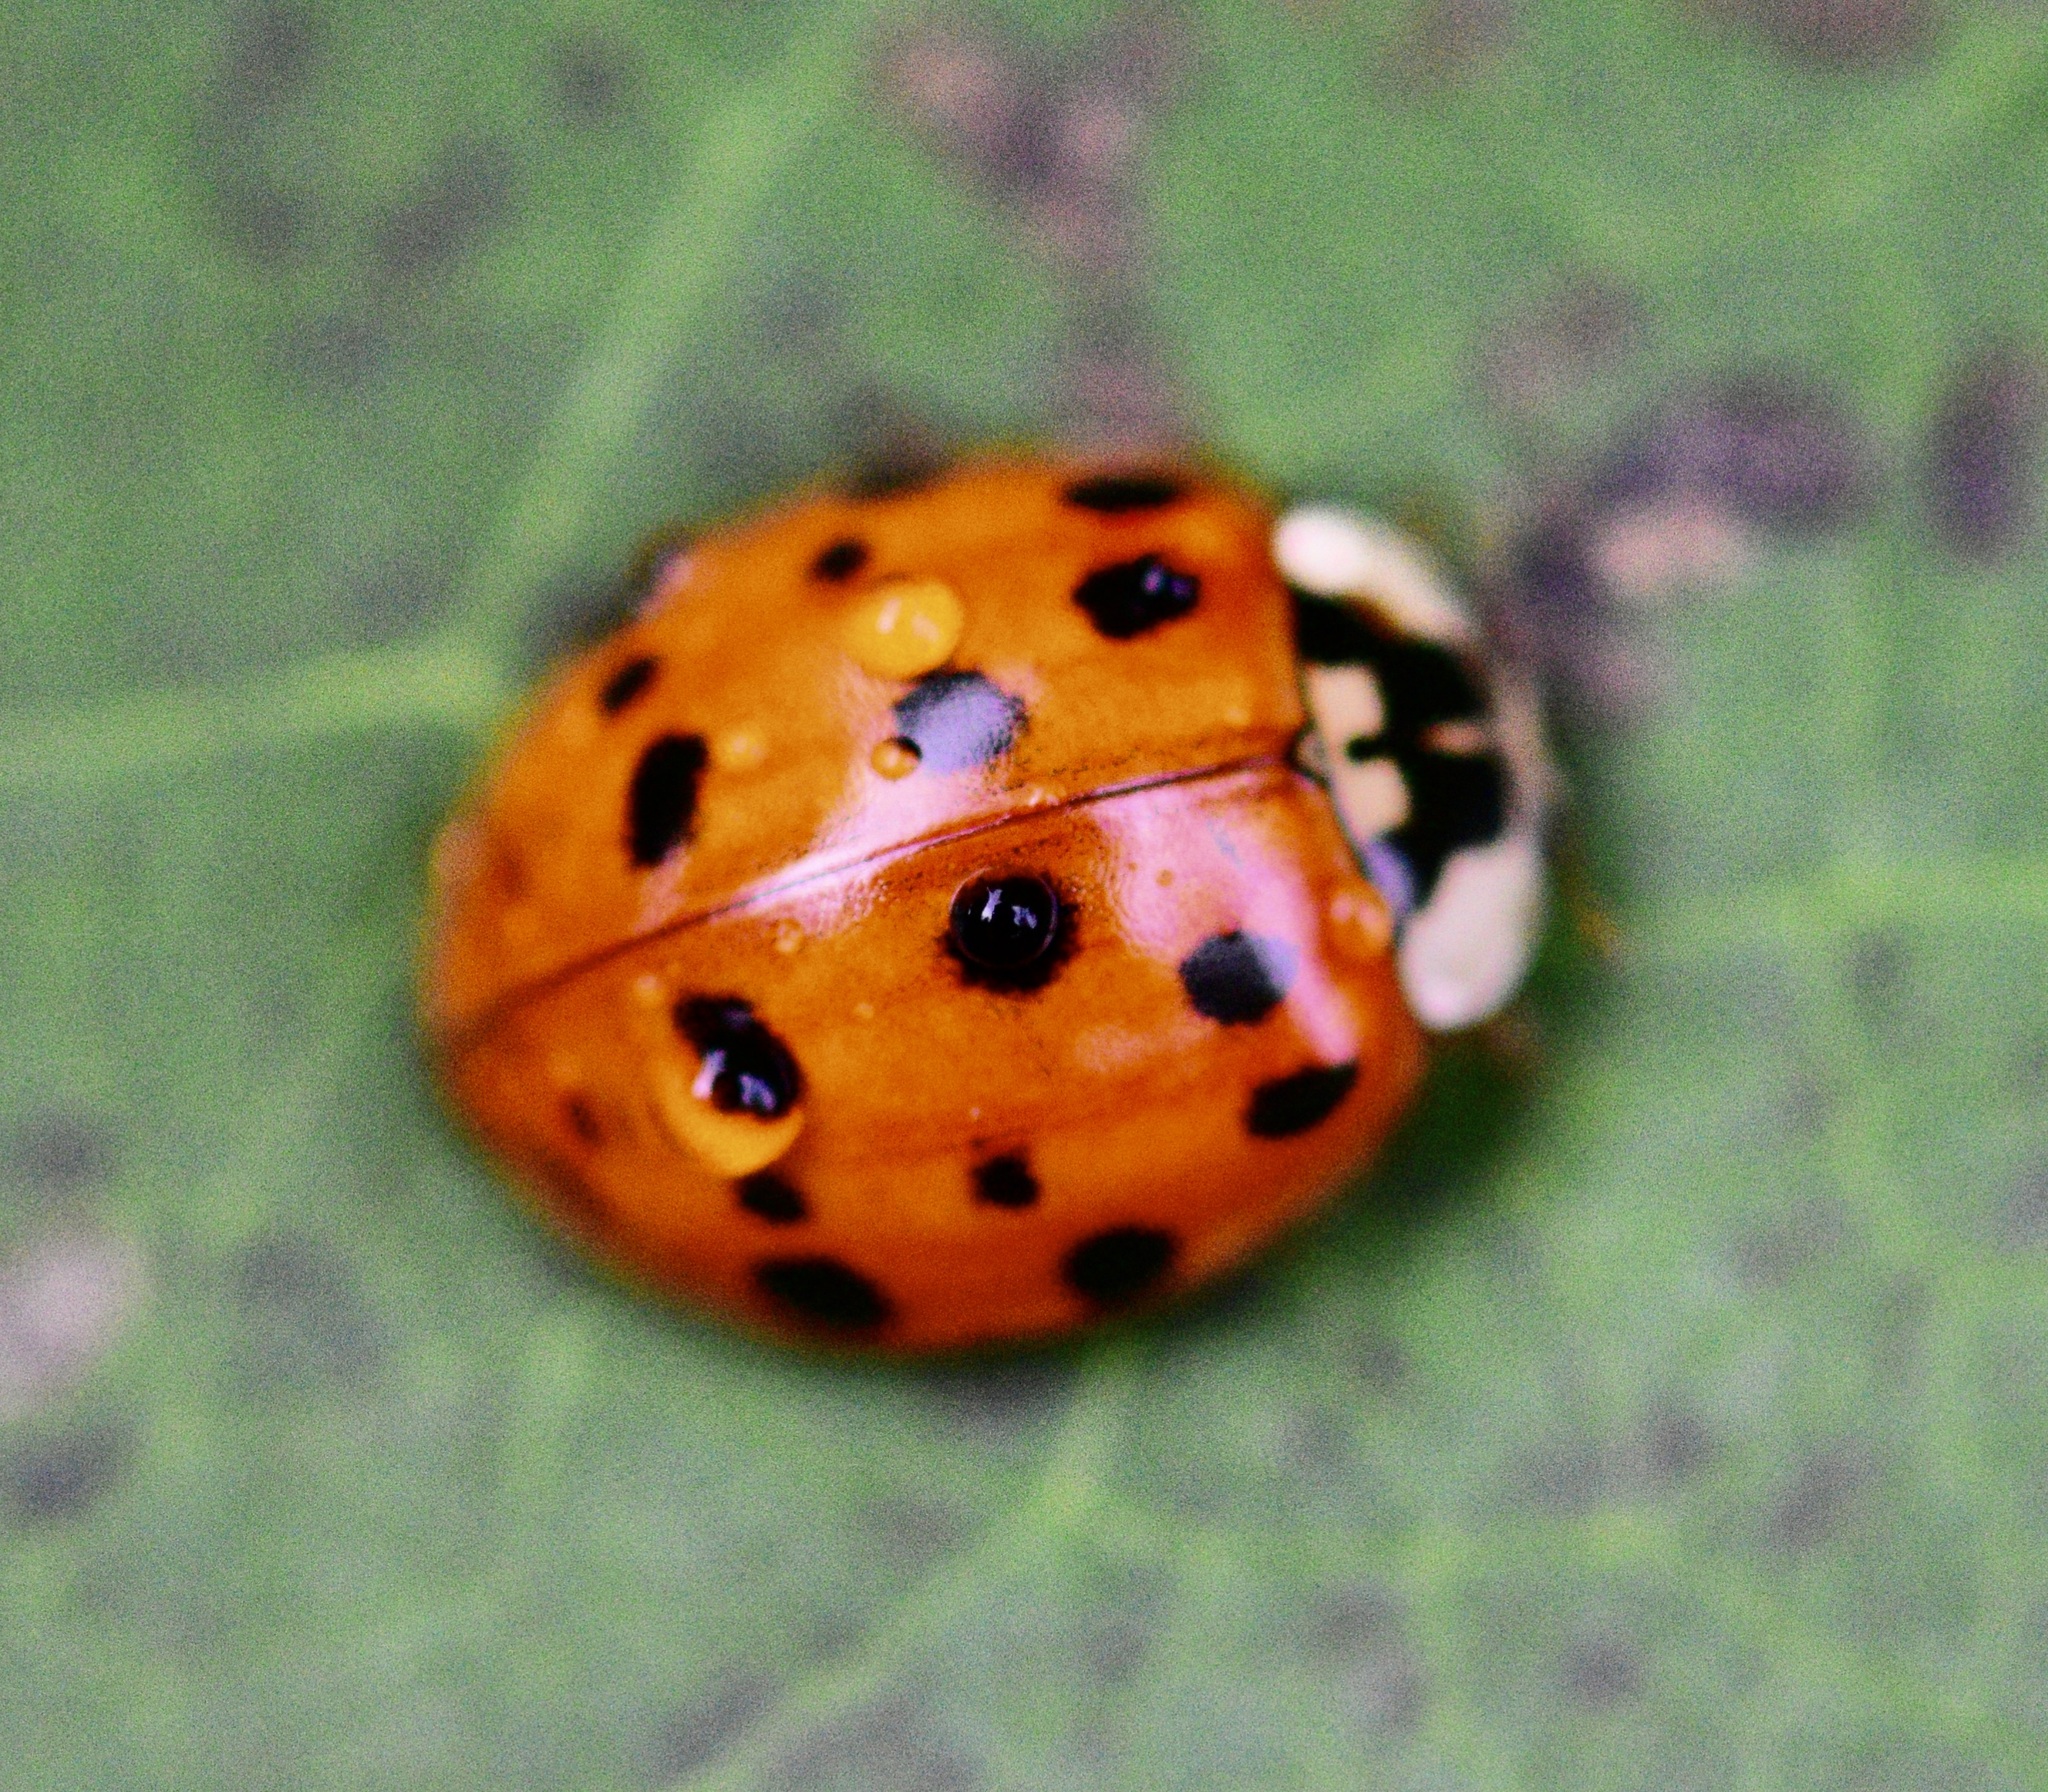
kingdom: Animalia
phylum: Arthropoda
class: Insecta
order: Coleoptera
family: Coccinellidae
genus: Harmonia
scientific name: Harmonia axyridis
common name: Harlequin ladybird
